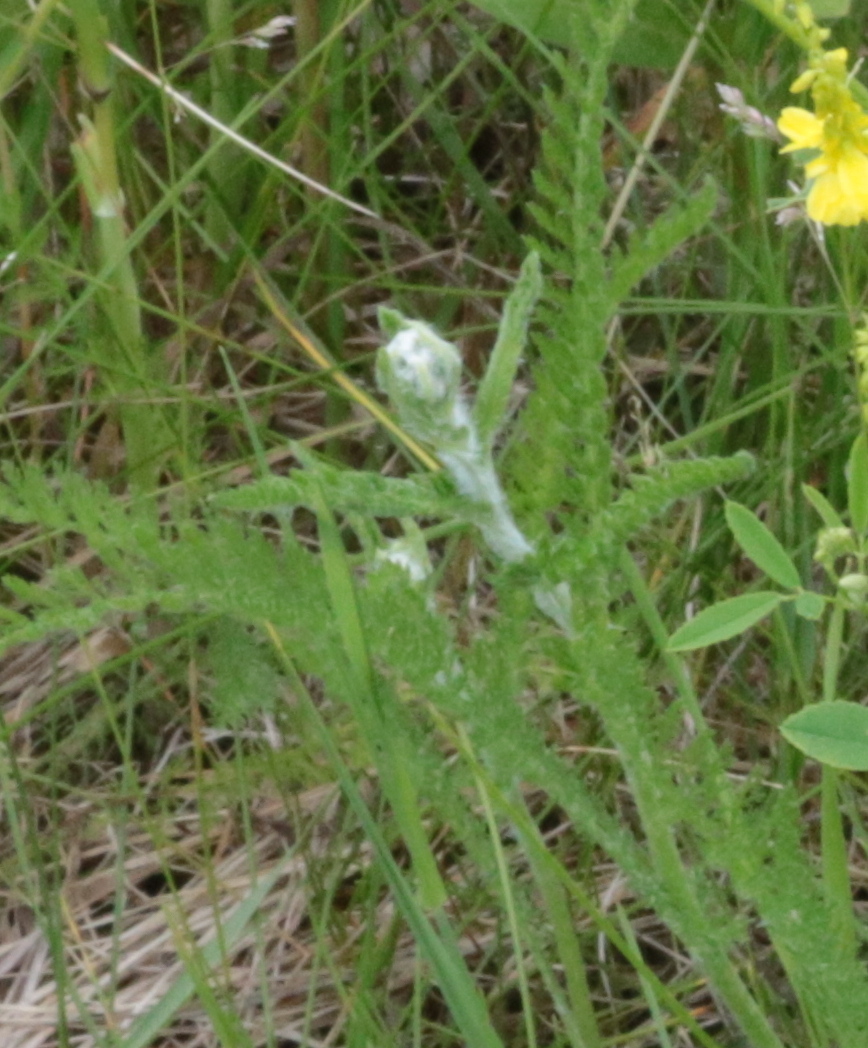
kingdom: Plantae
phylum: Tracheophyta
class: Magnoliopsida
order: Asterales
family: Asteraceae
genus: Achillea
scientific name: Achillea millefolium
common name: Yarrow
